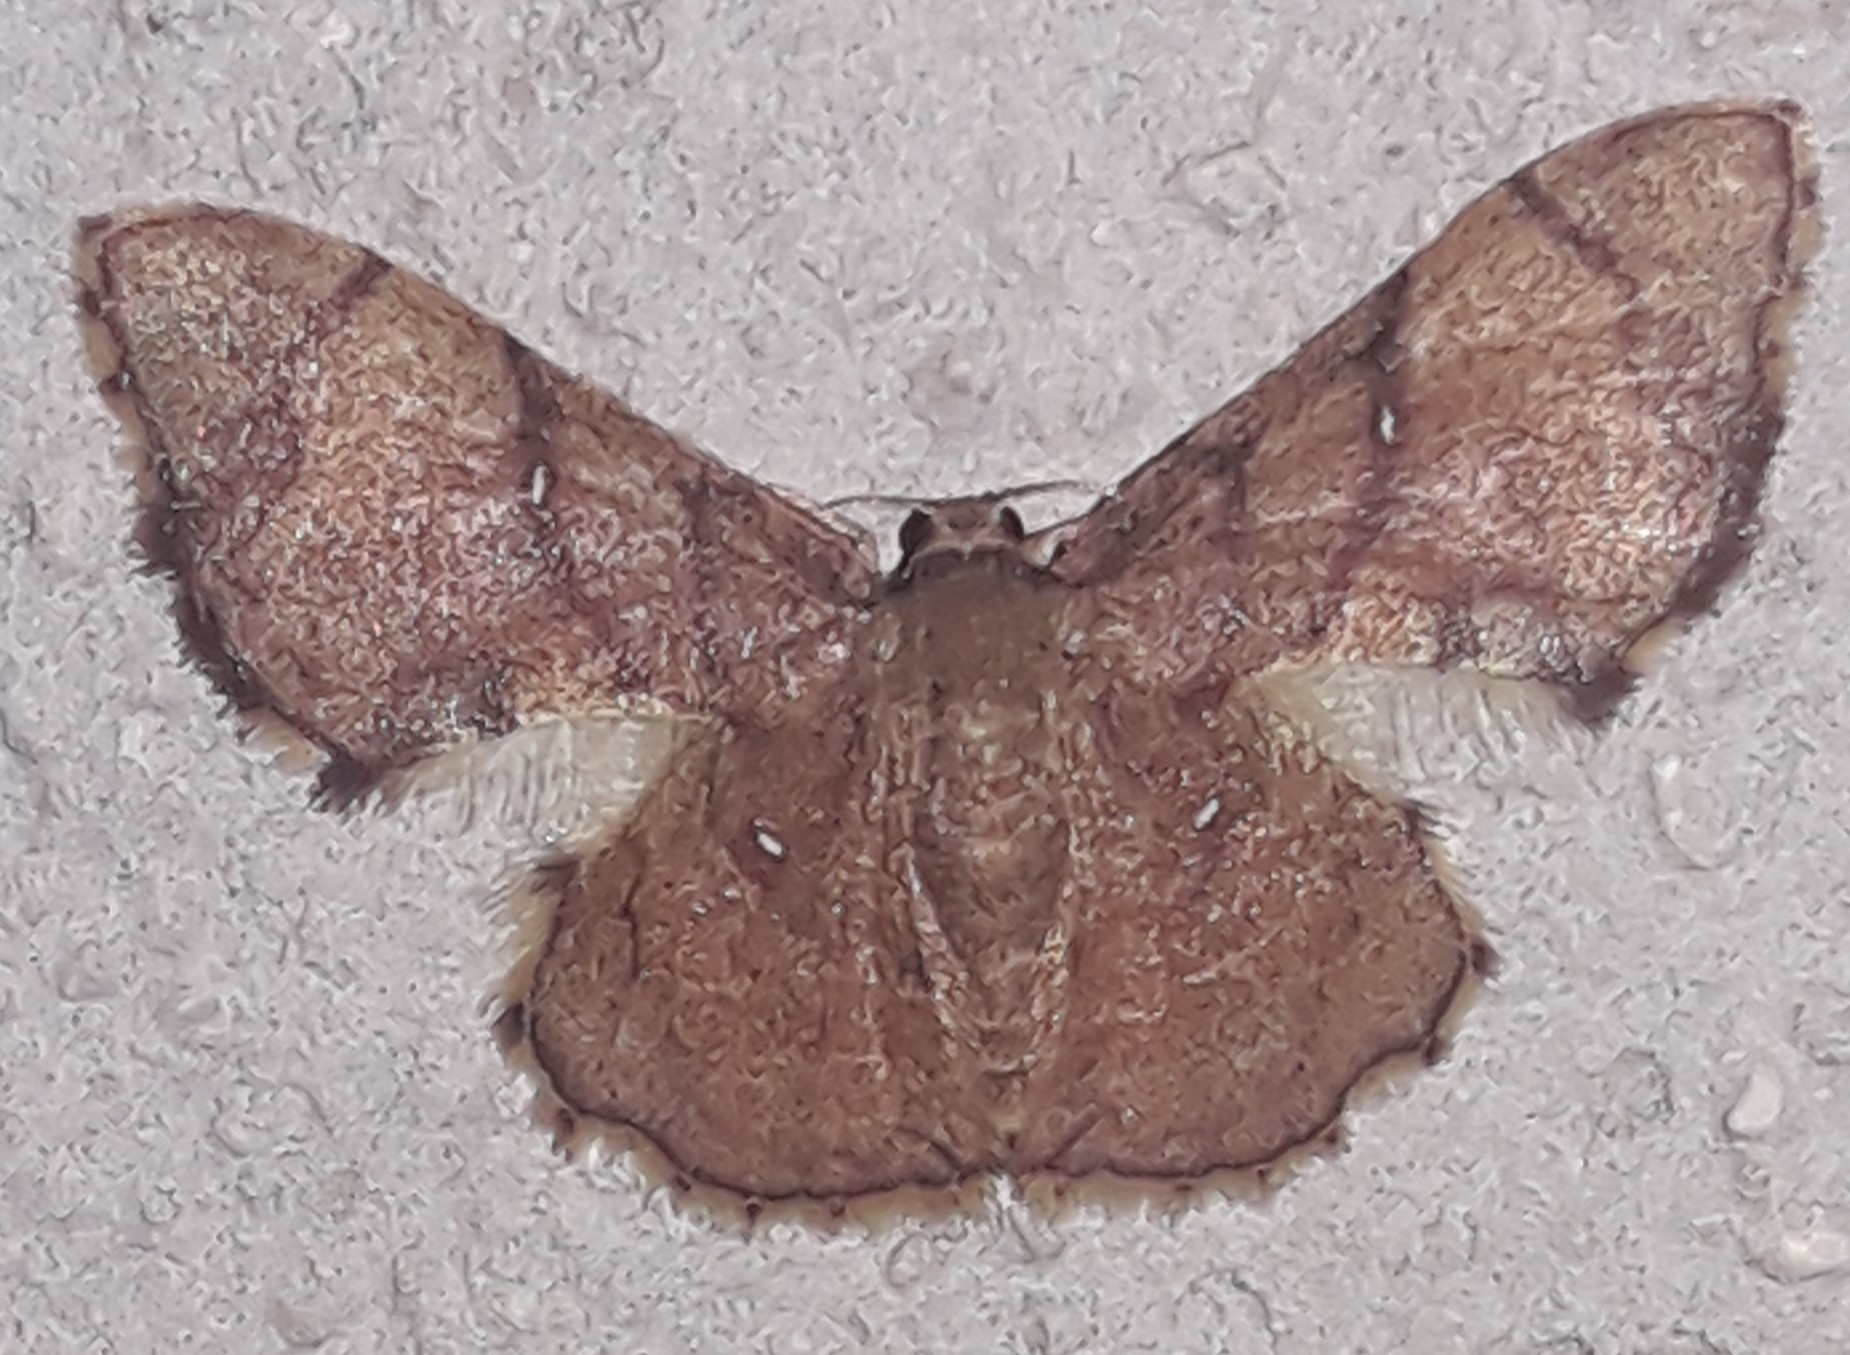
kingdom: Animalia
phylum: Arthropoda
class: Insecta
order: Lepidoptera
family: Geometridae
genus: Hemipterodes
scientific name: Hemipterodes subrotundata
